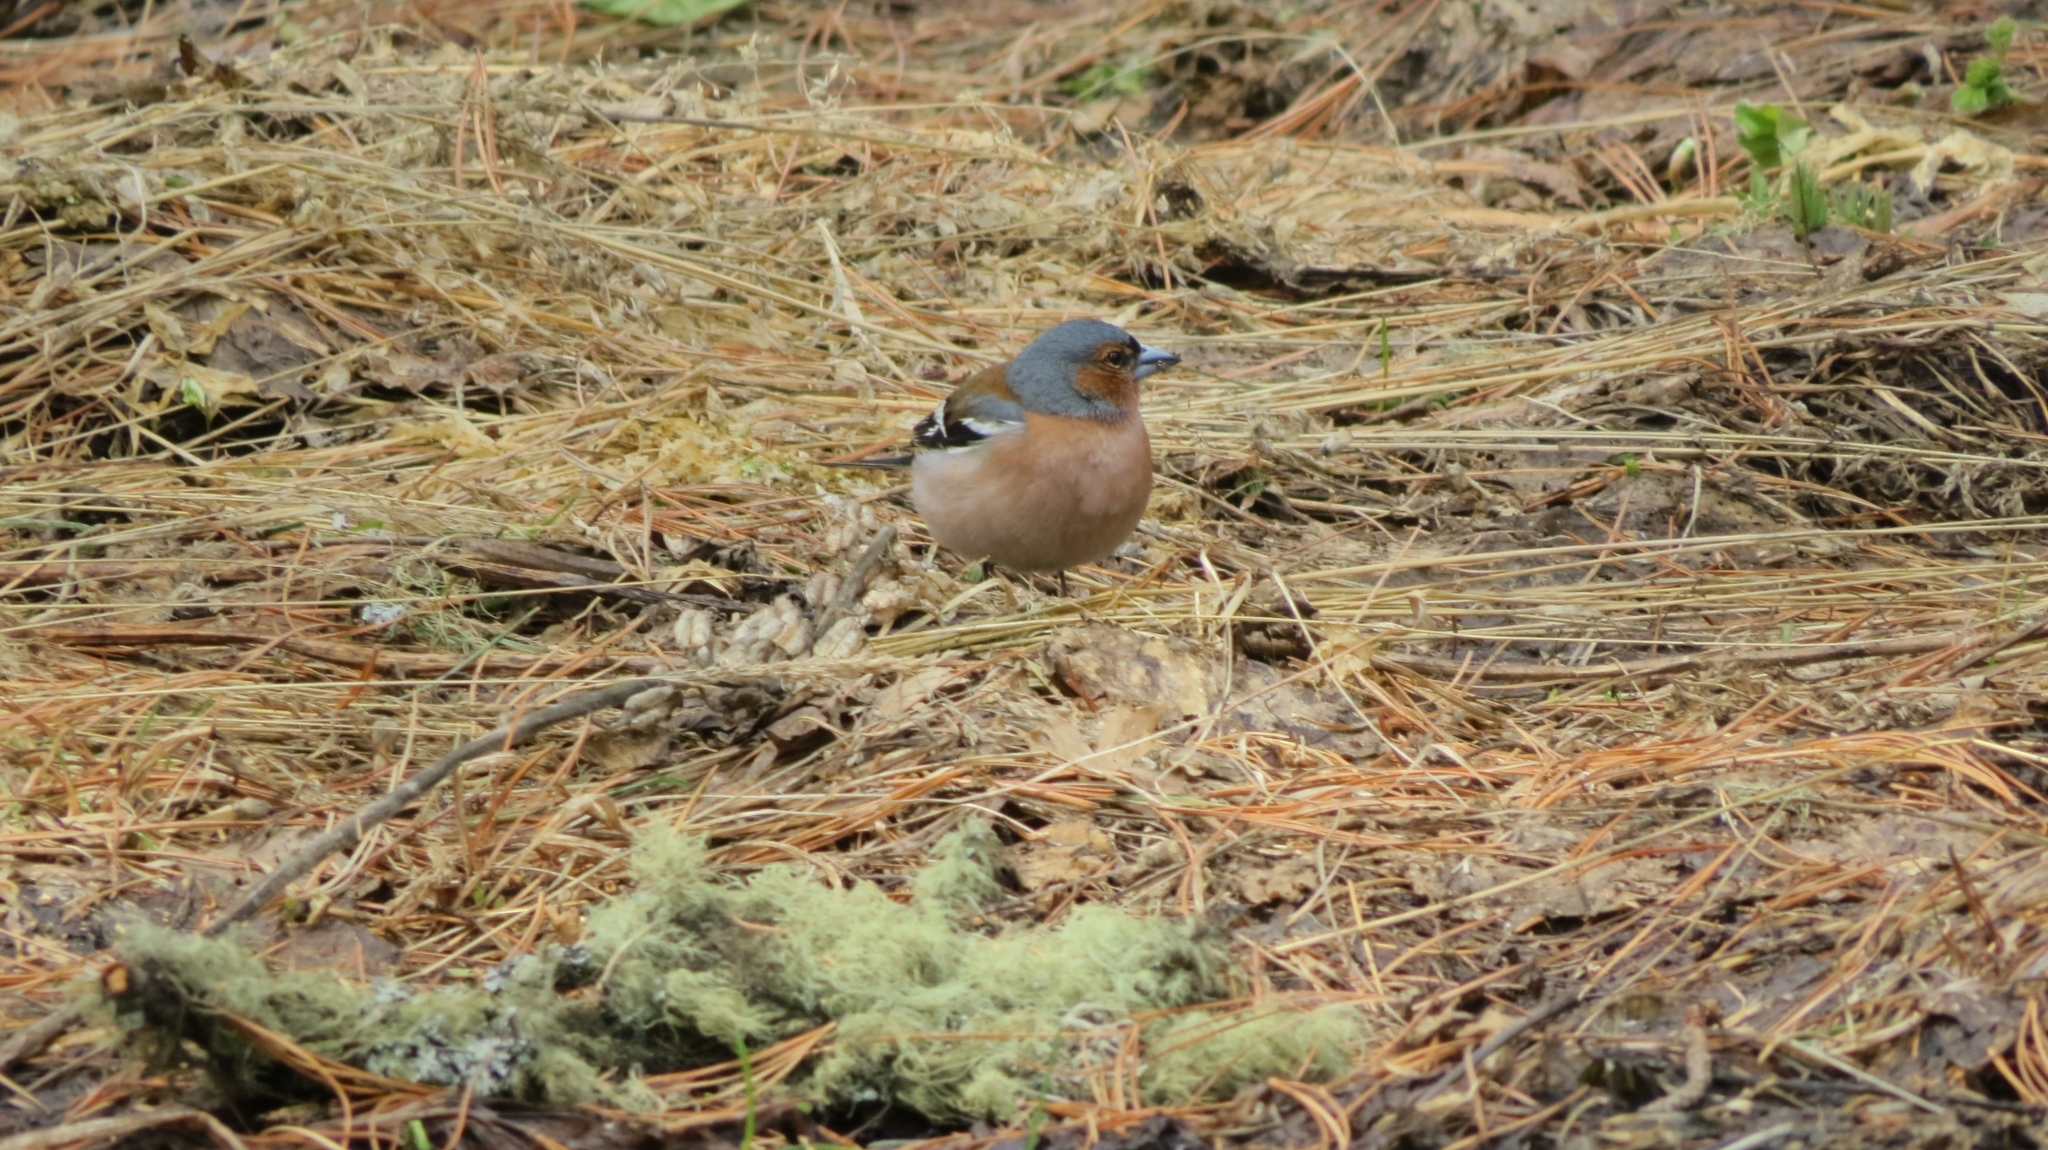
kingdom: Animalia
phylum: Chordata
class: Aves
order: Passeriformes
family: Fringillidae
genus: Fringilla
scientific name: Fringilla coelebs
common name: Common chaffinch
